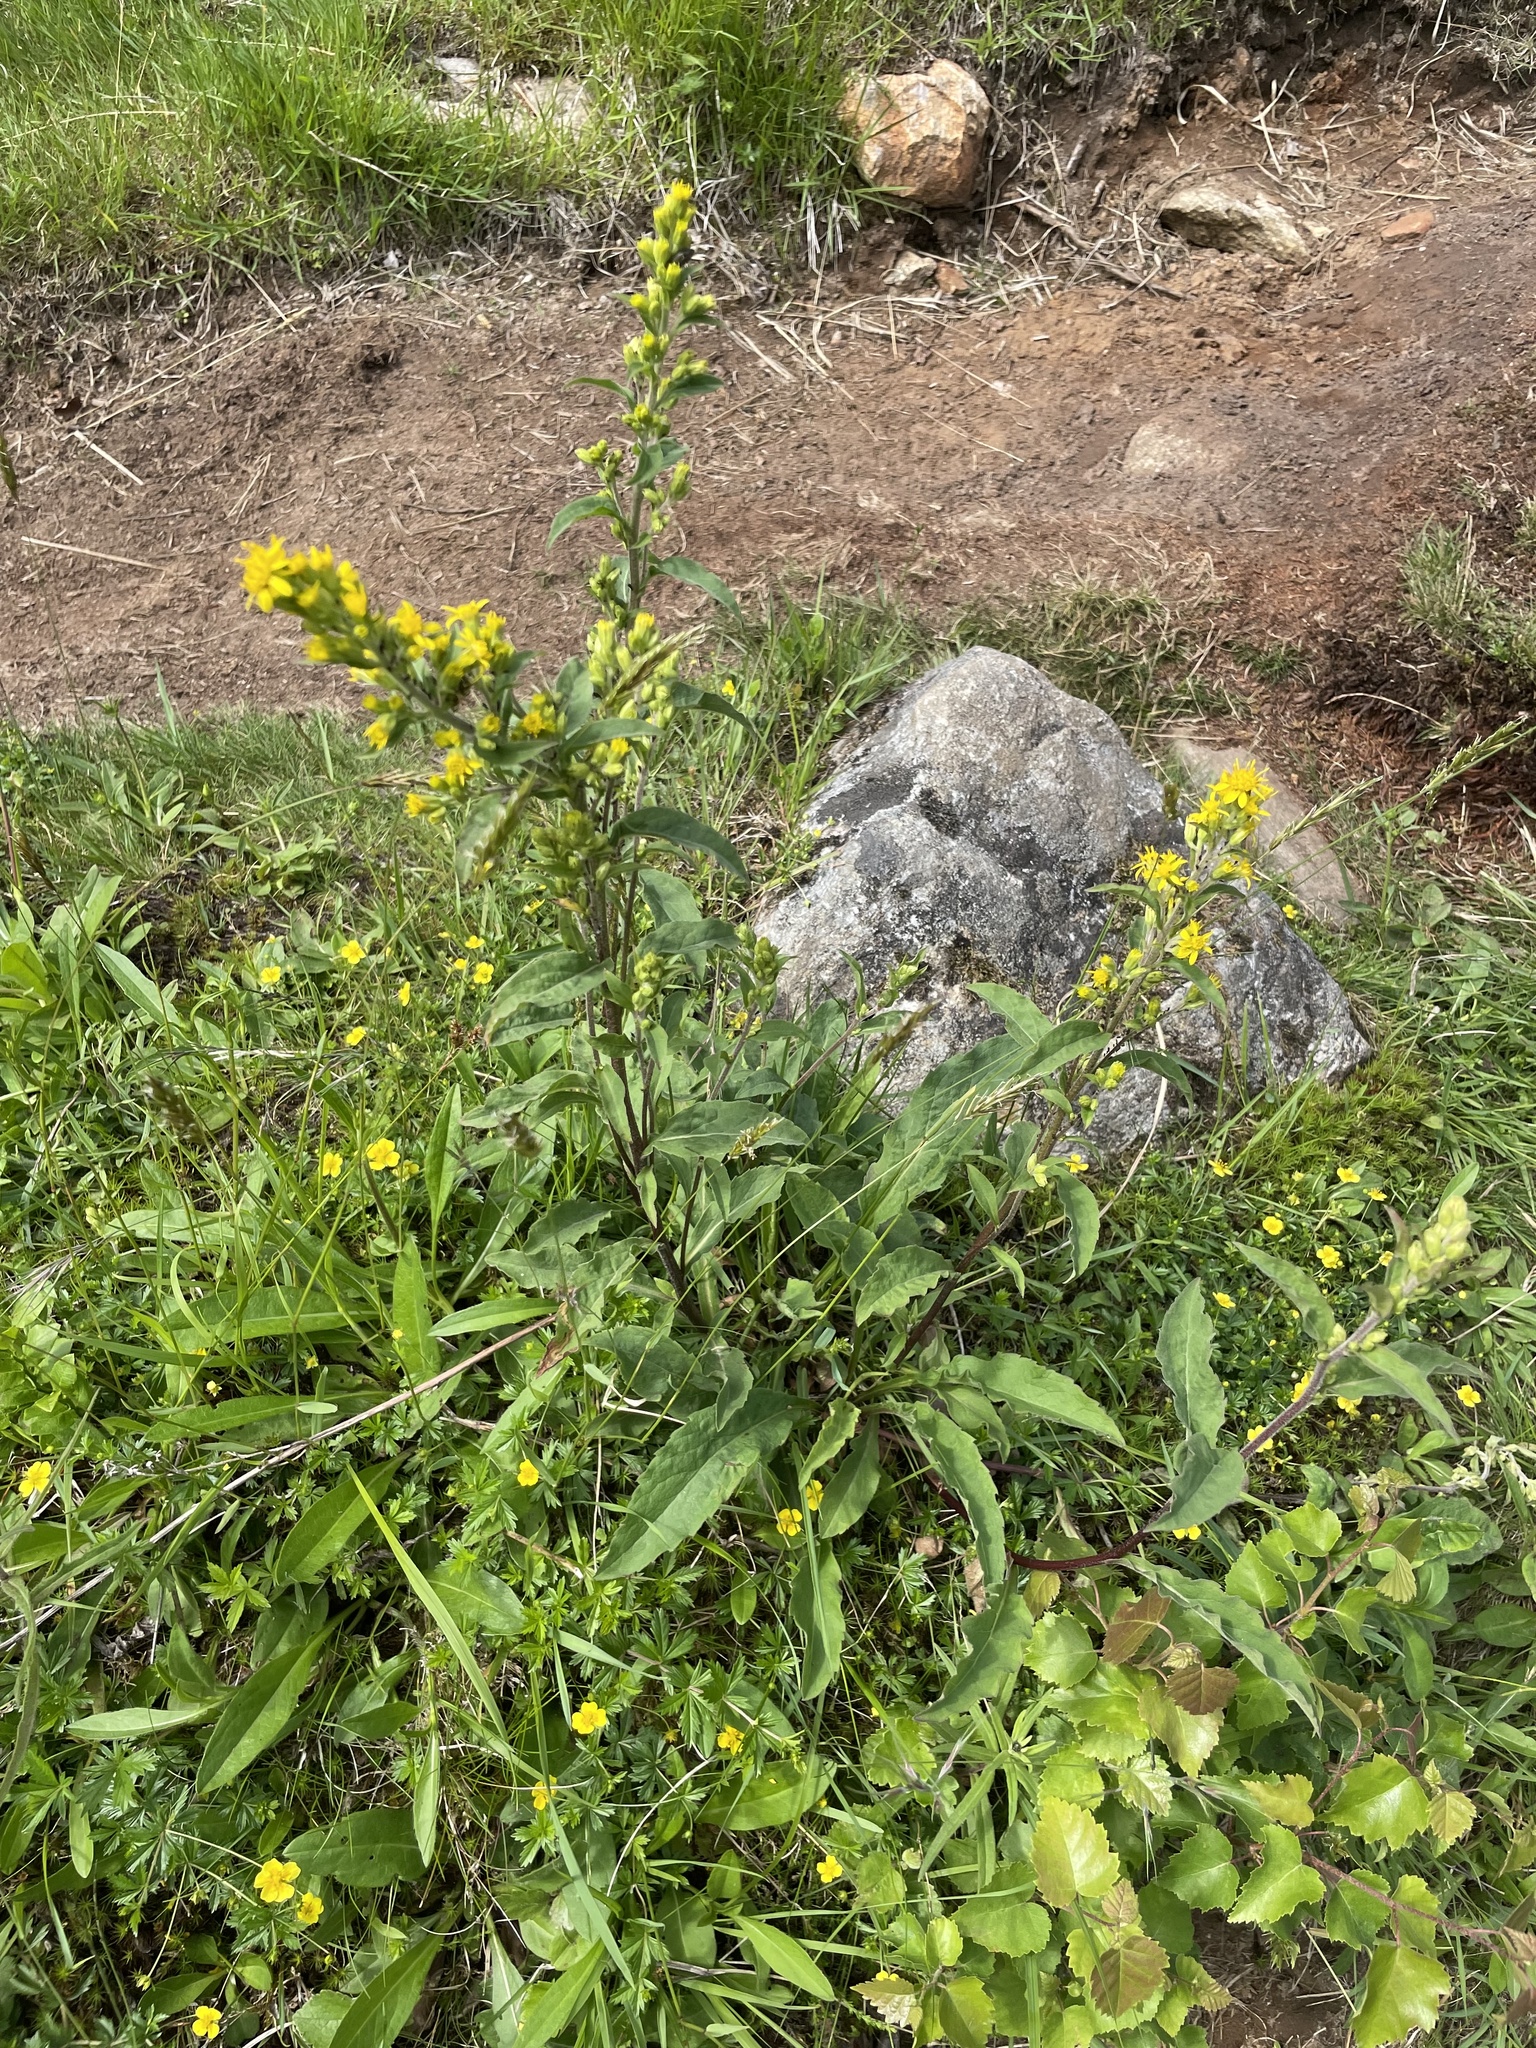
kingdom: Plantae
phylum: Tracheophyta
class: Magnoliopsida
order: Asterales
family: Asteraceae
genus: Solidago
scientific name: Solidago virgaurea
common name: Goldenrod
